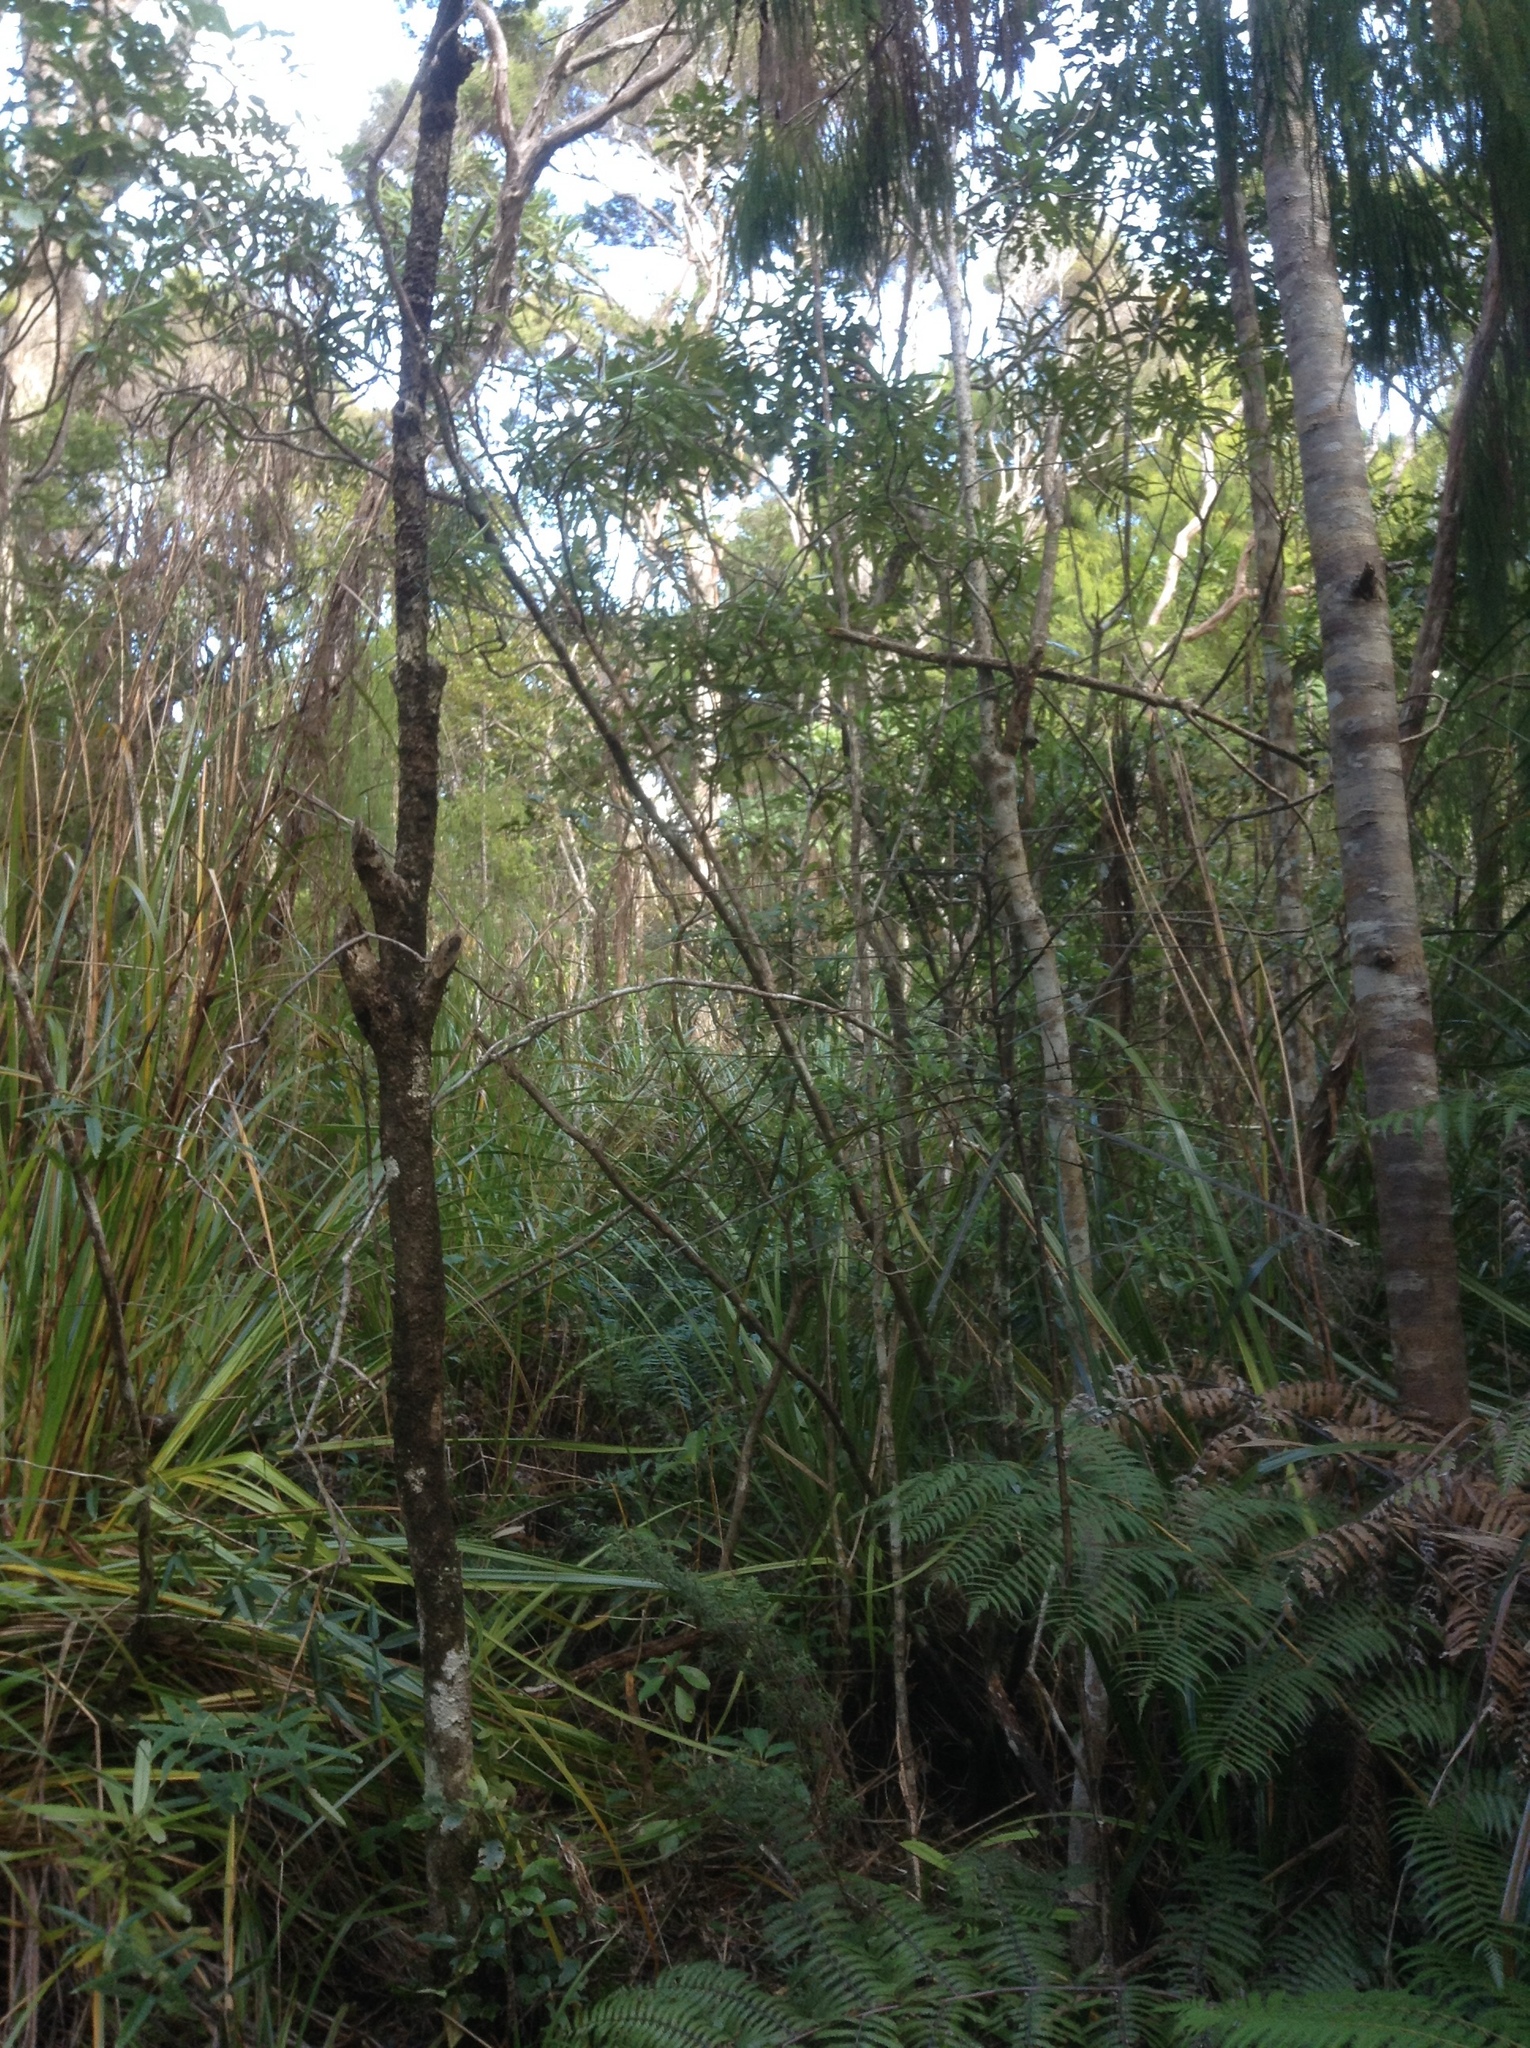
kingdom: Plantae
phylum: Tracheophyta
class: Magnoliopsida
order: Asterales
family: Asteraceae
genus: Brachyglottis
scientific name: Brachyglottis kirkii
